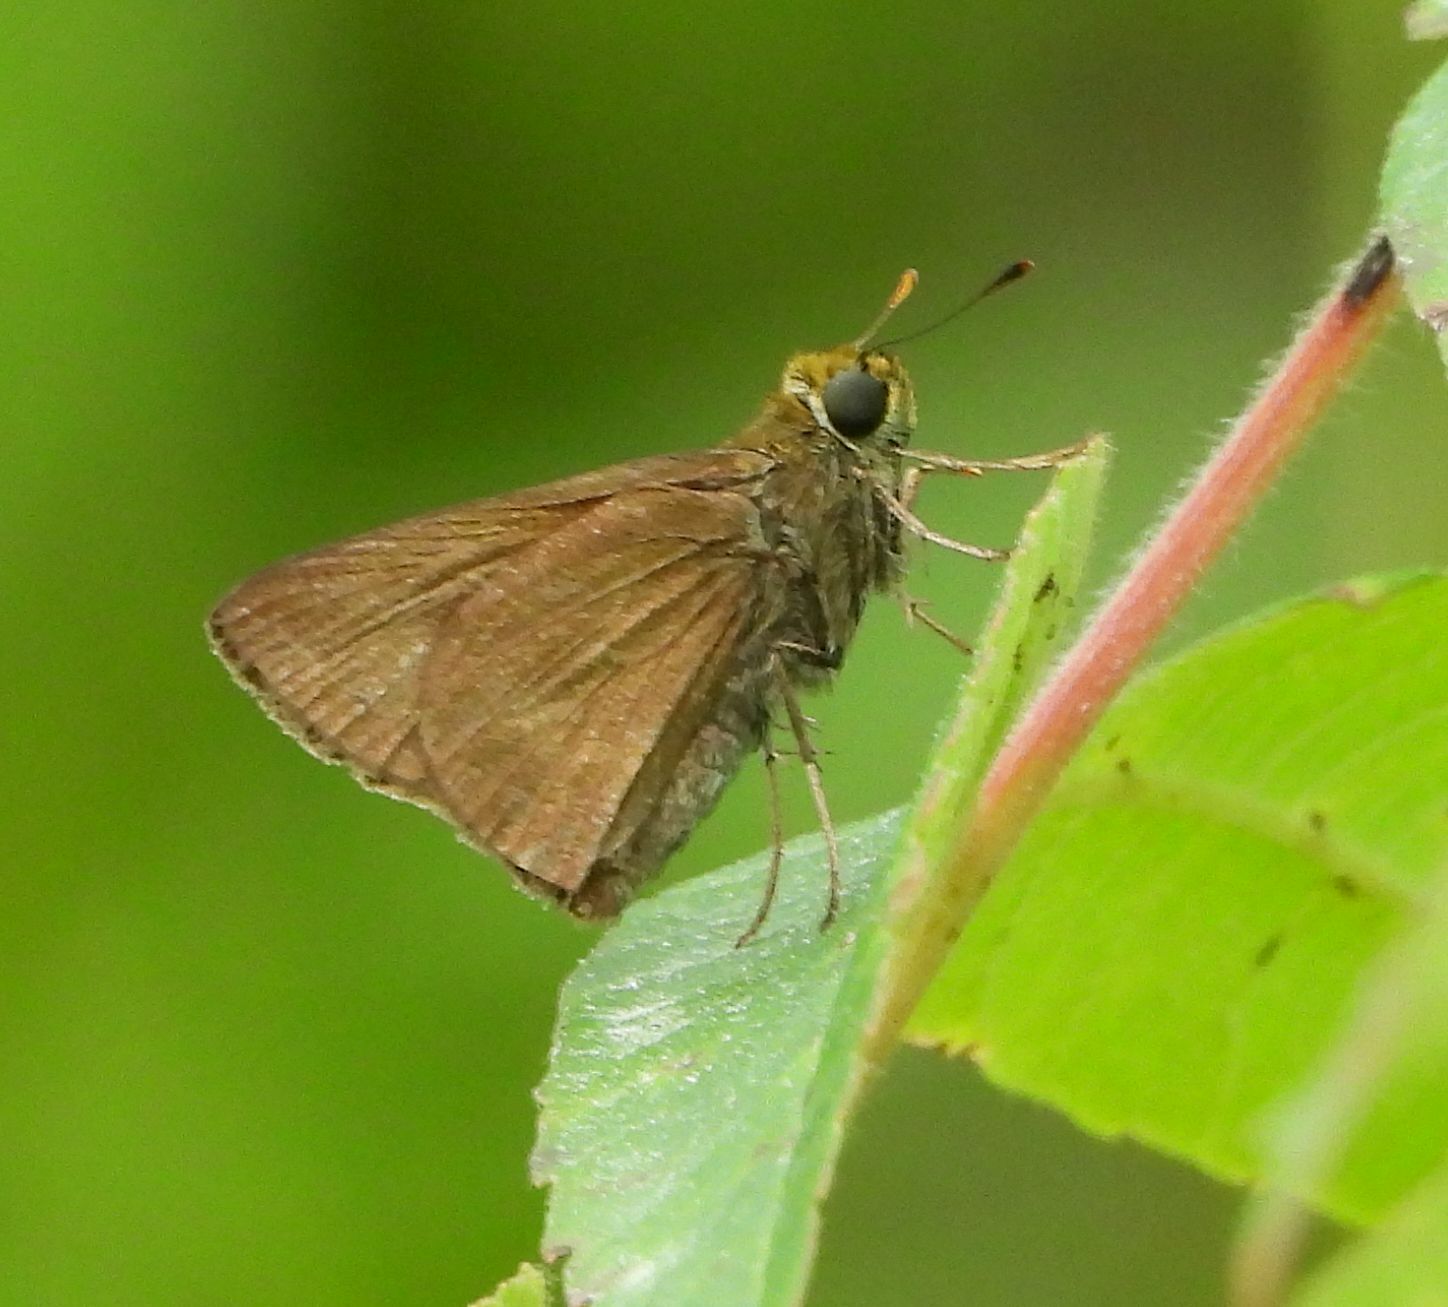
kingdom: Animalia
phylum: Arthropoda
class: Insecta
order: Lepidoptera
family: Hesperiidae
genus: Euphyes
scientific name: Euphyes vestris
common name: Dun skipper
